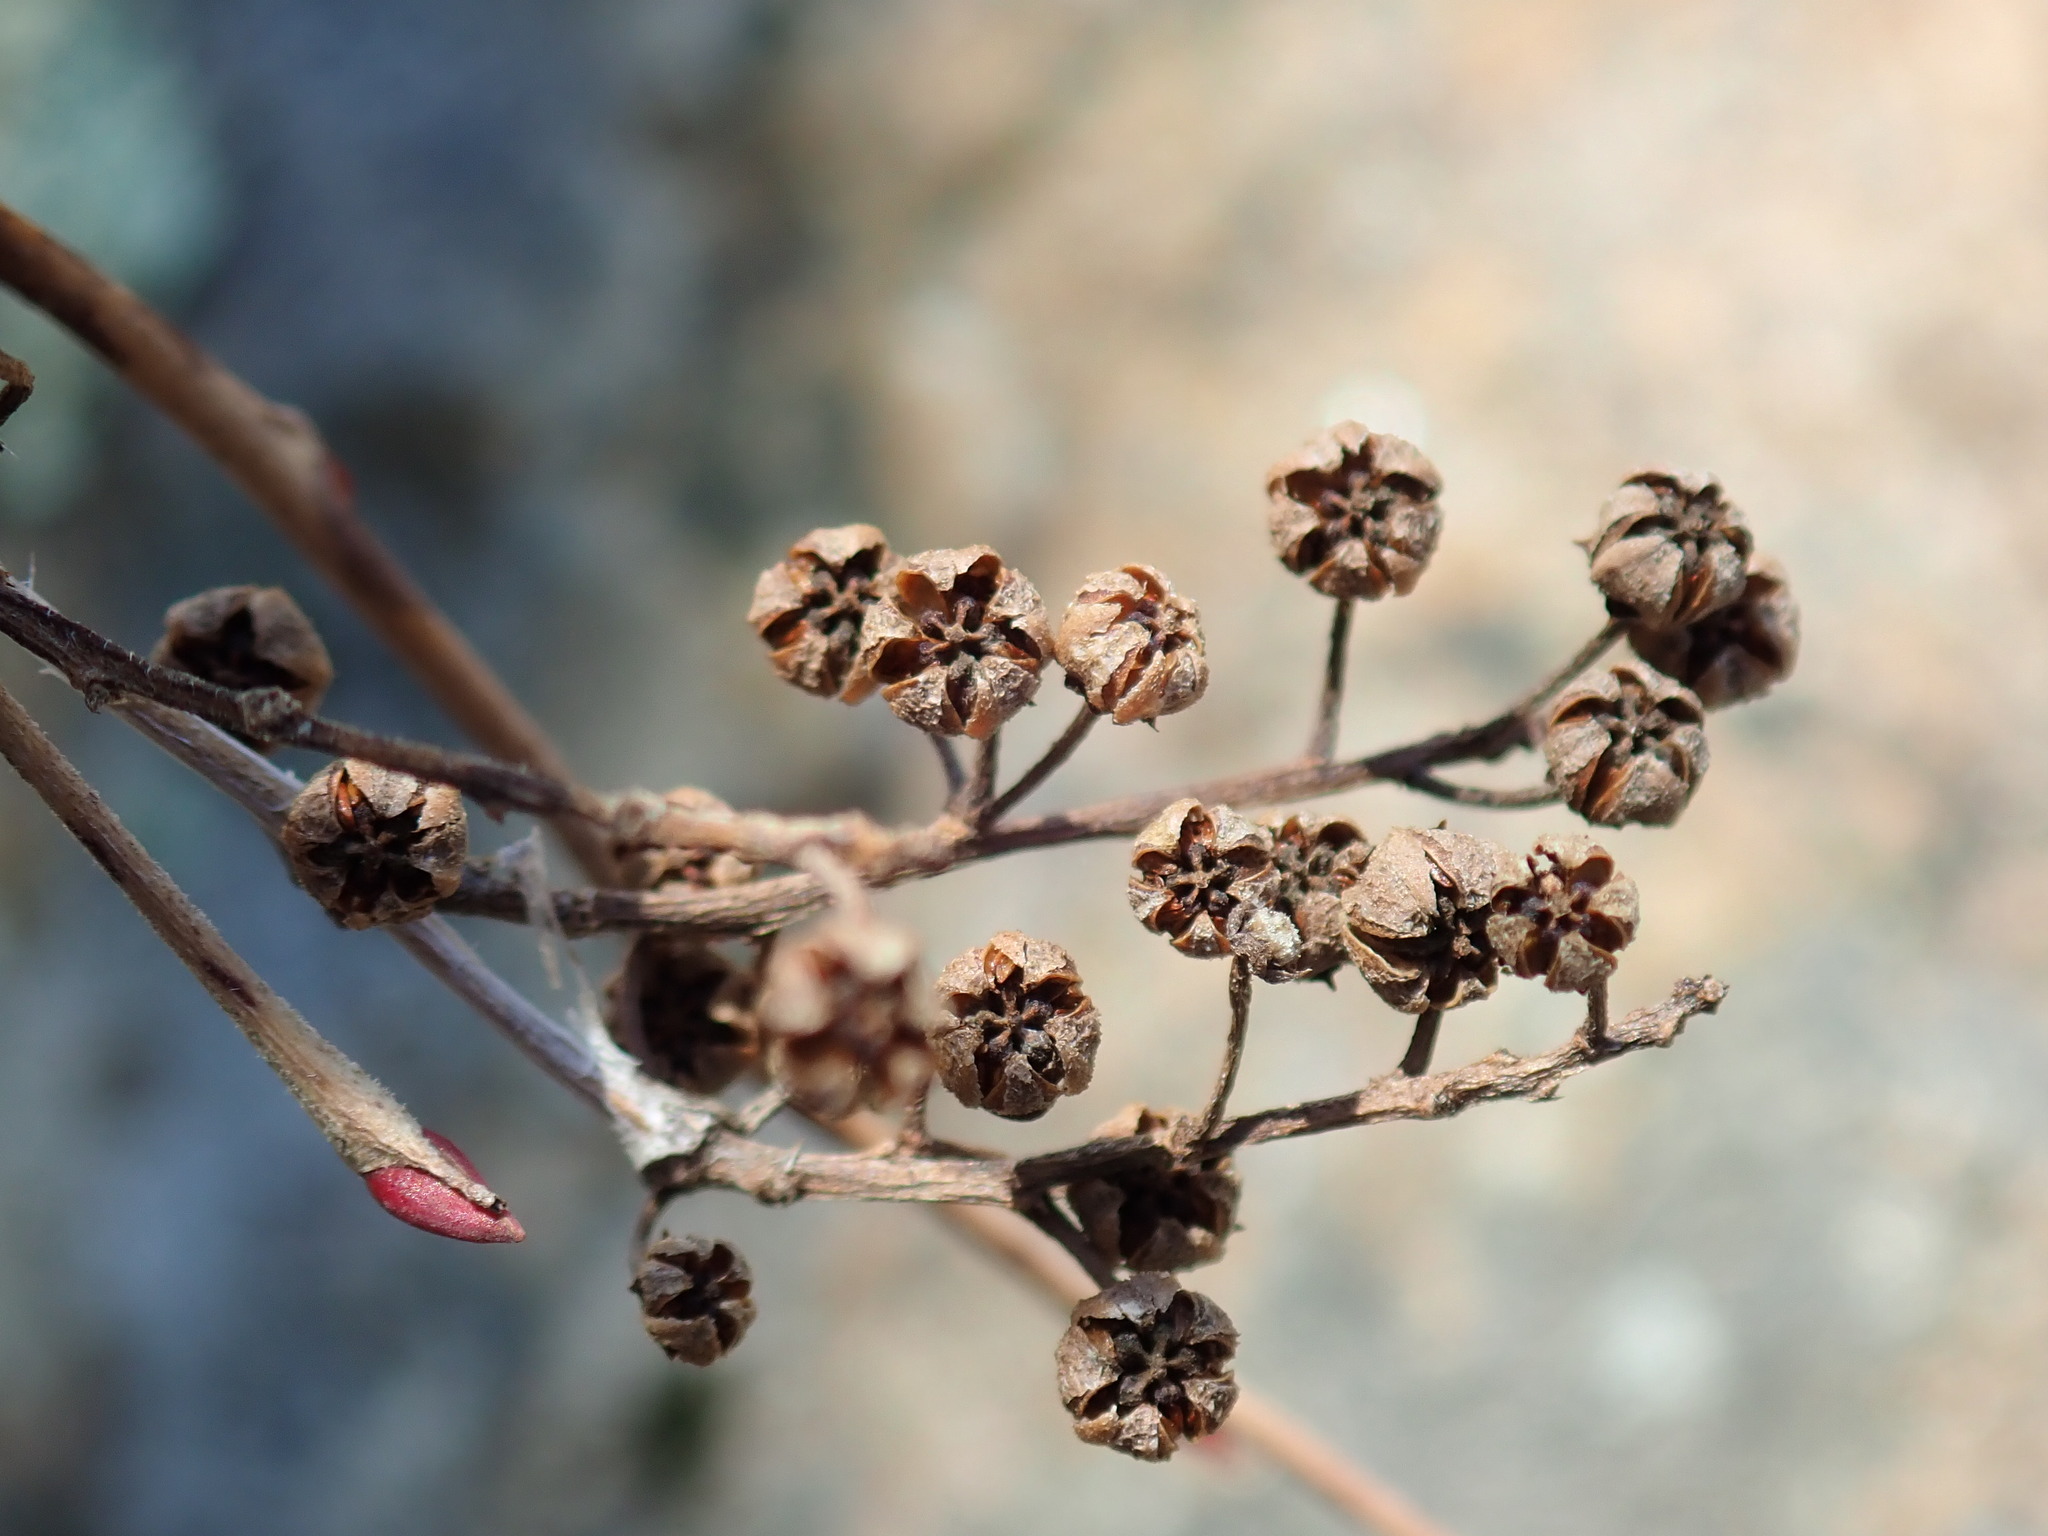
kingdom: Plantae
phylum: Tracheophyta
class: Magnoliopsida
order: Ericales
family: Ericaceae
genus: Lyonia
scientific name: Lyonia ligustrina
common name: Maleberry
